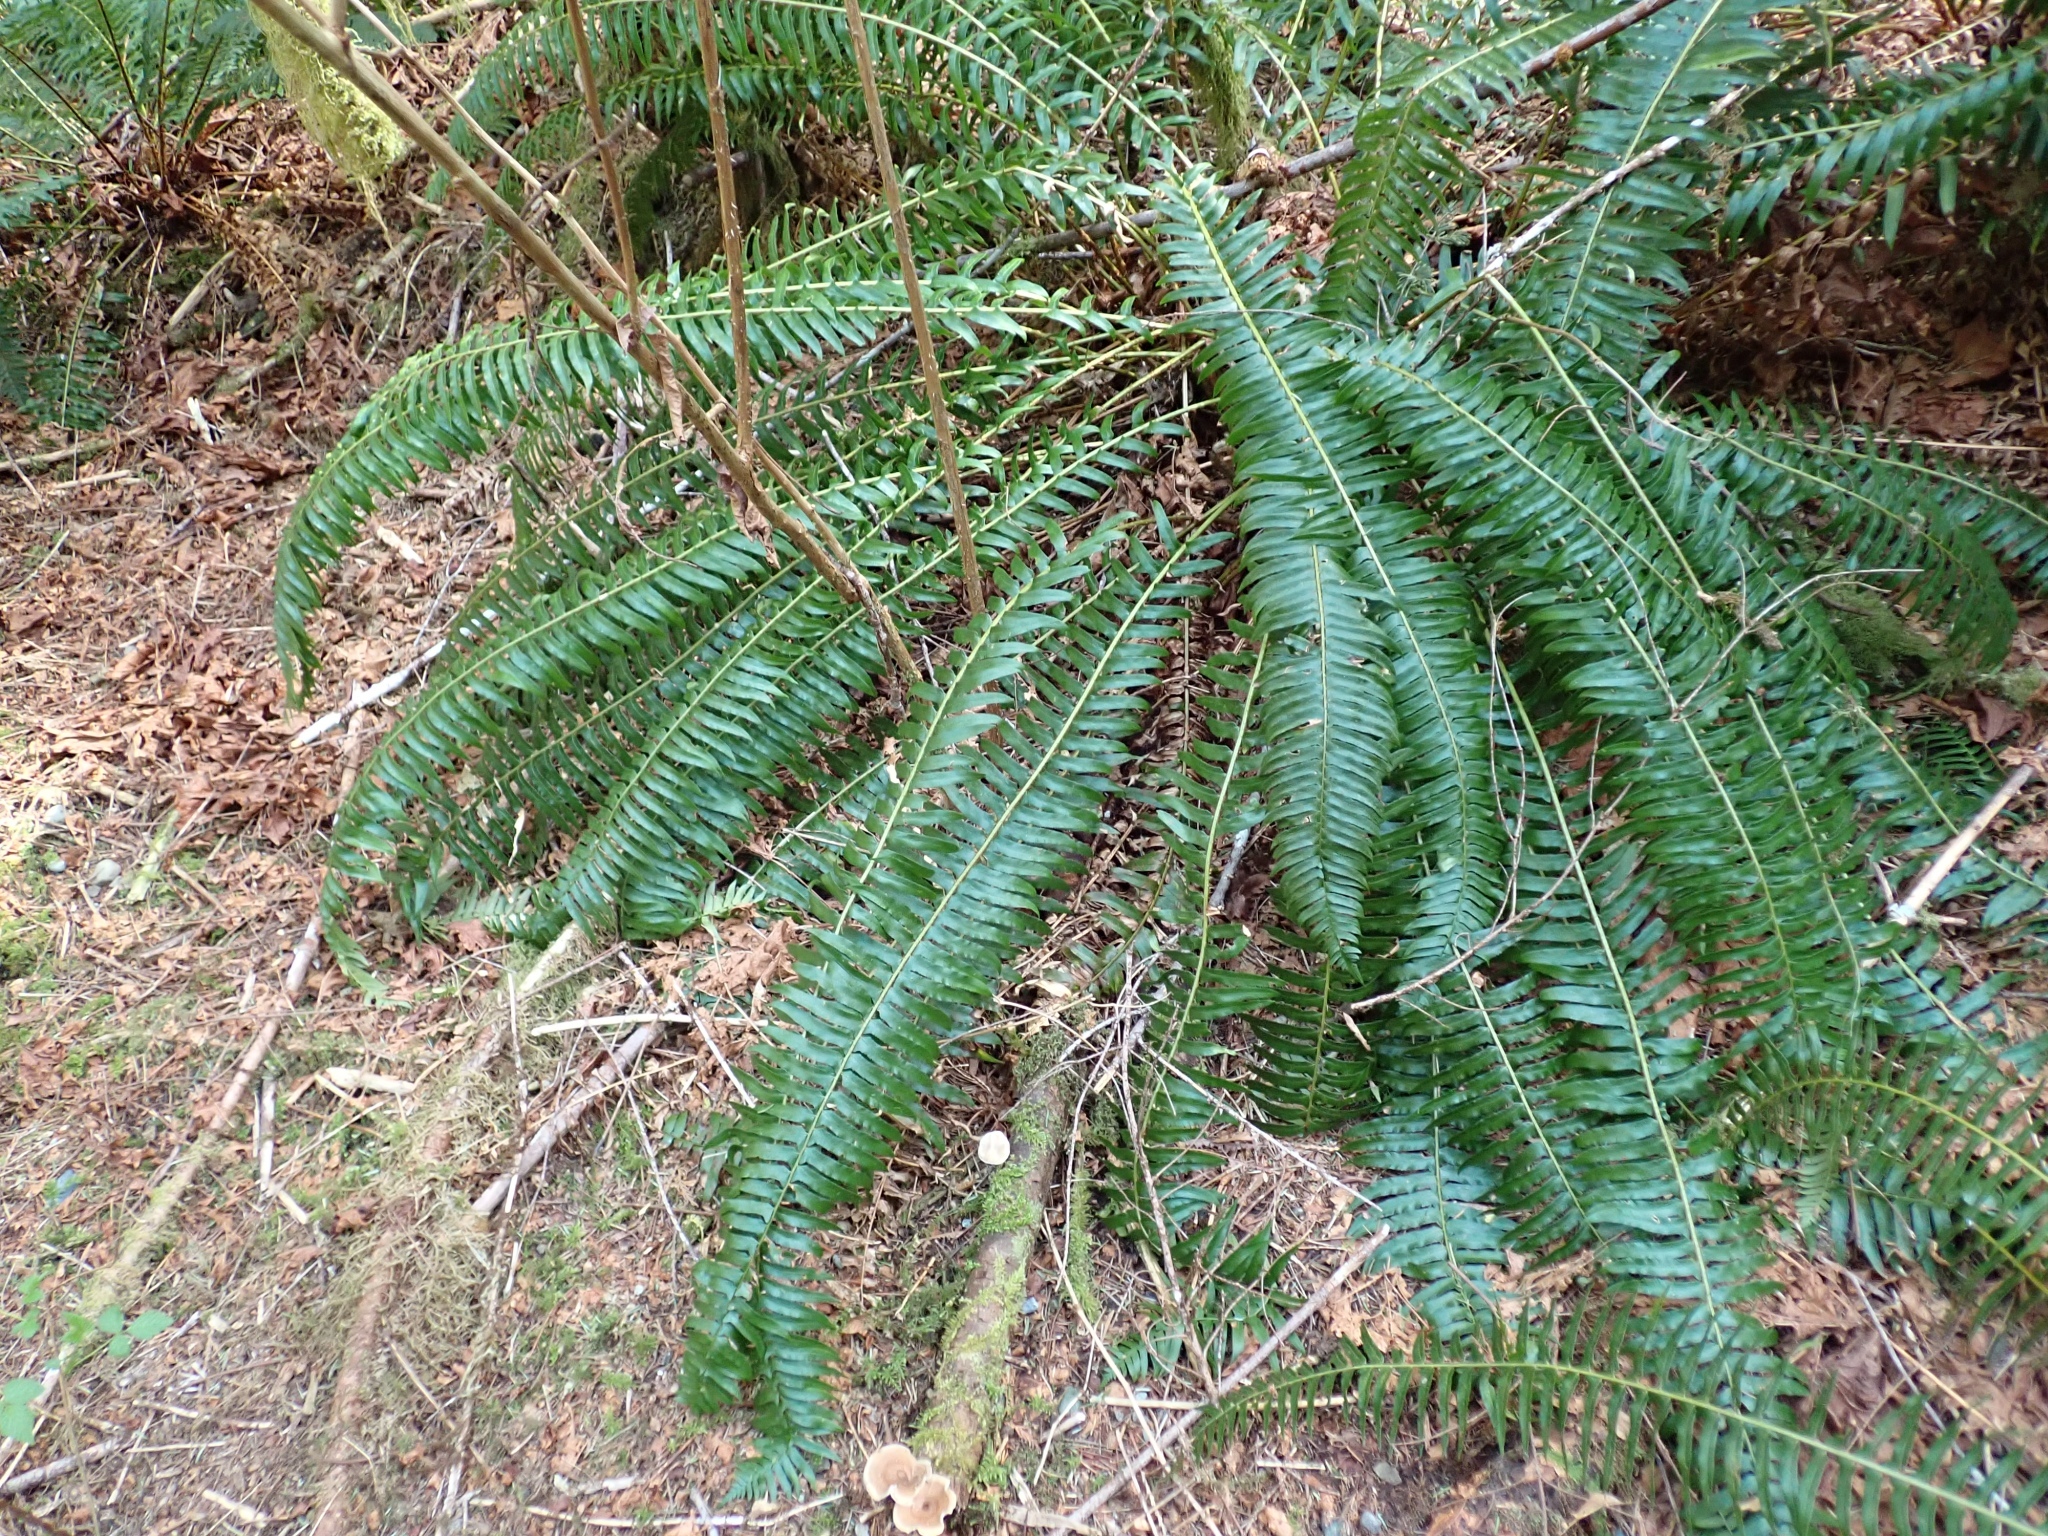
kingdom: Plantae
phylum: Tracheophyta
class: Polypodiopsida
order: Polypodiales
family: Dryopteridaceae
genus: Polystichum
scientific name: Polystichum munitum
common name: Western sword-fern
